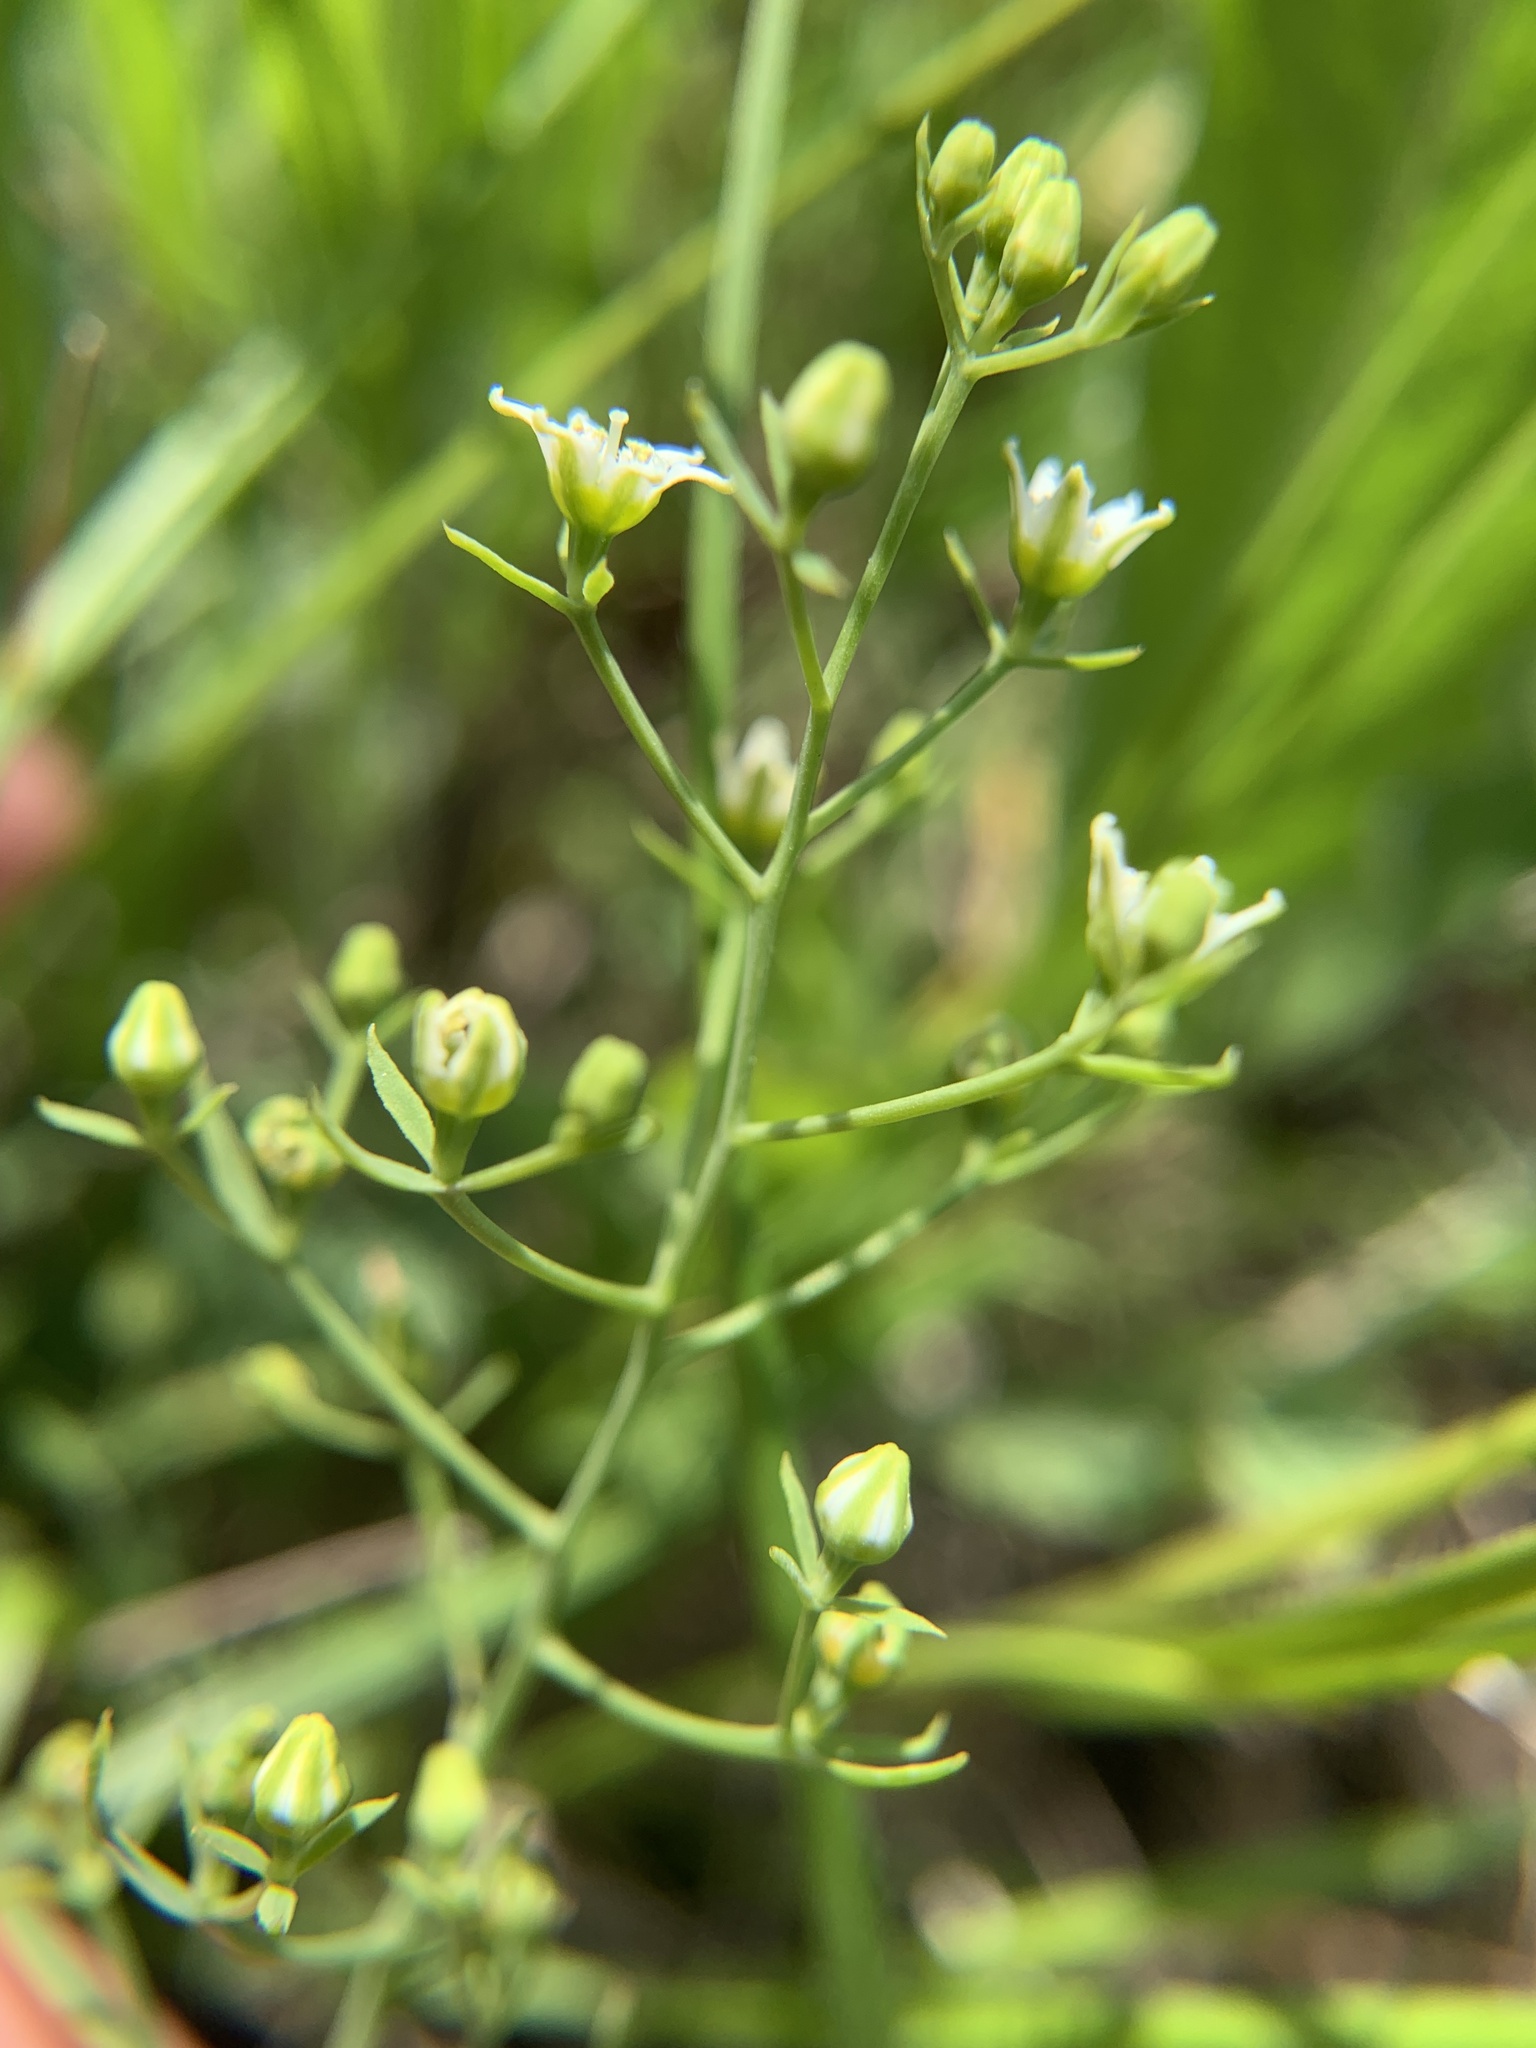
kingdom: Plantae
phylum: Tracheophyta
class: Magnoliopsida
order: Santalales
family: Thesiaceae
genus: Thesium
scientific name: Thesium linophyllon
